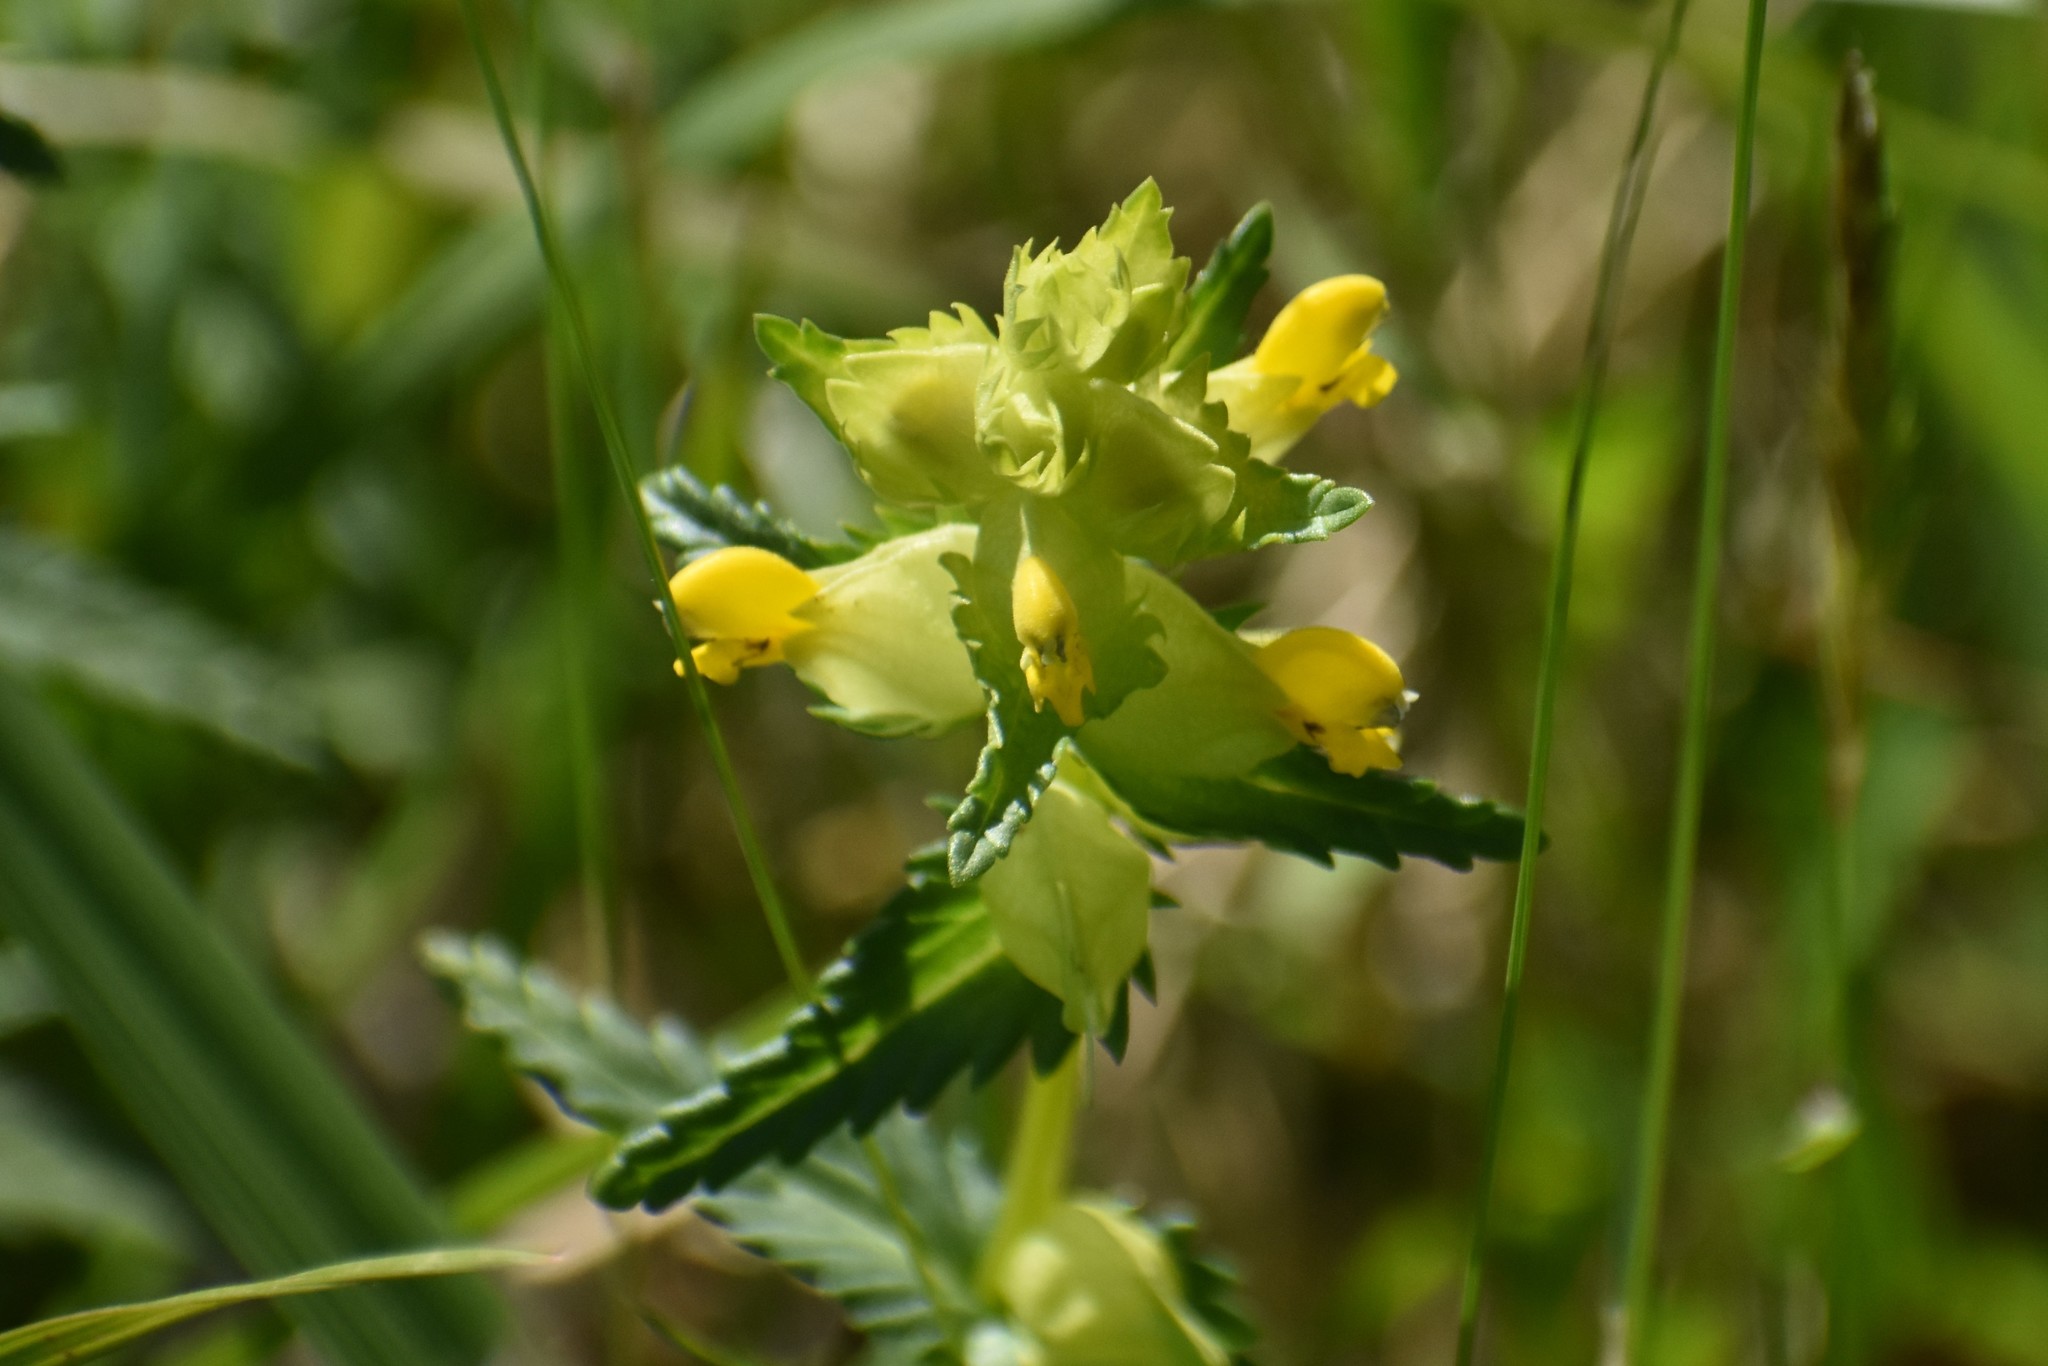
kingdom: Plantae
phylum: Tracheophyta
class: Magnoliopsida
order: Lamiales
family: Orobanchaceae
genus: Rhinanthus
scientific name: Rhinanthus minor
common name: Yellow-rattle
